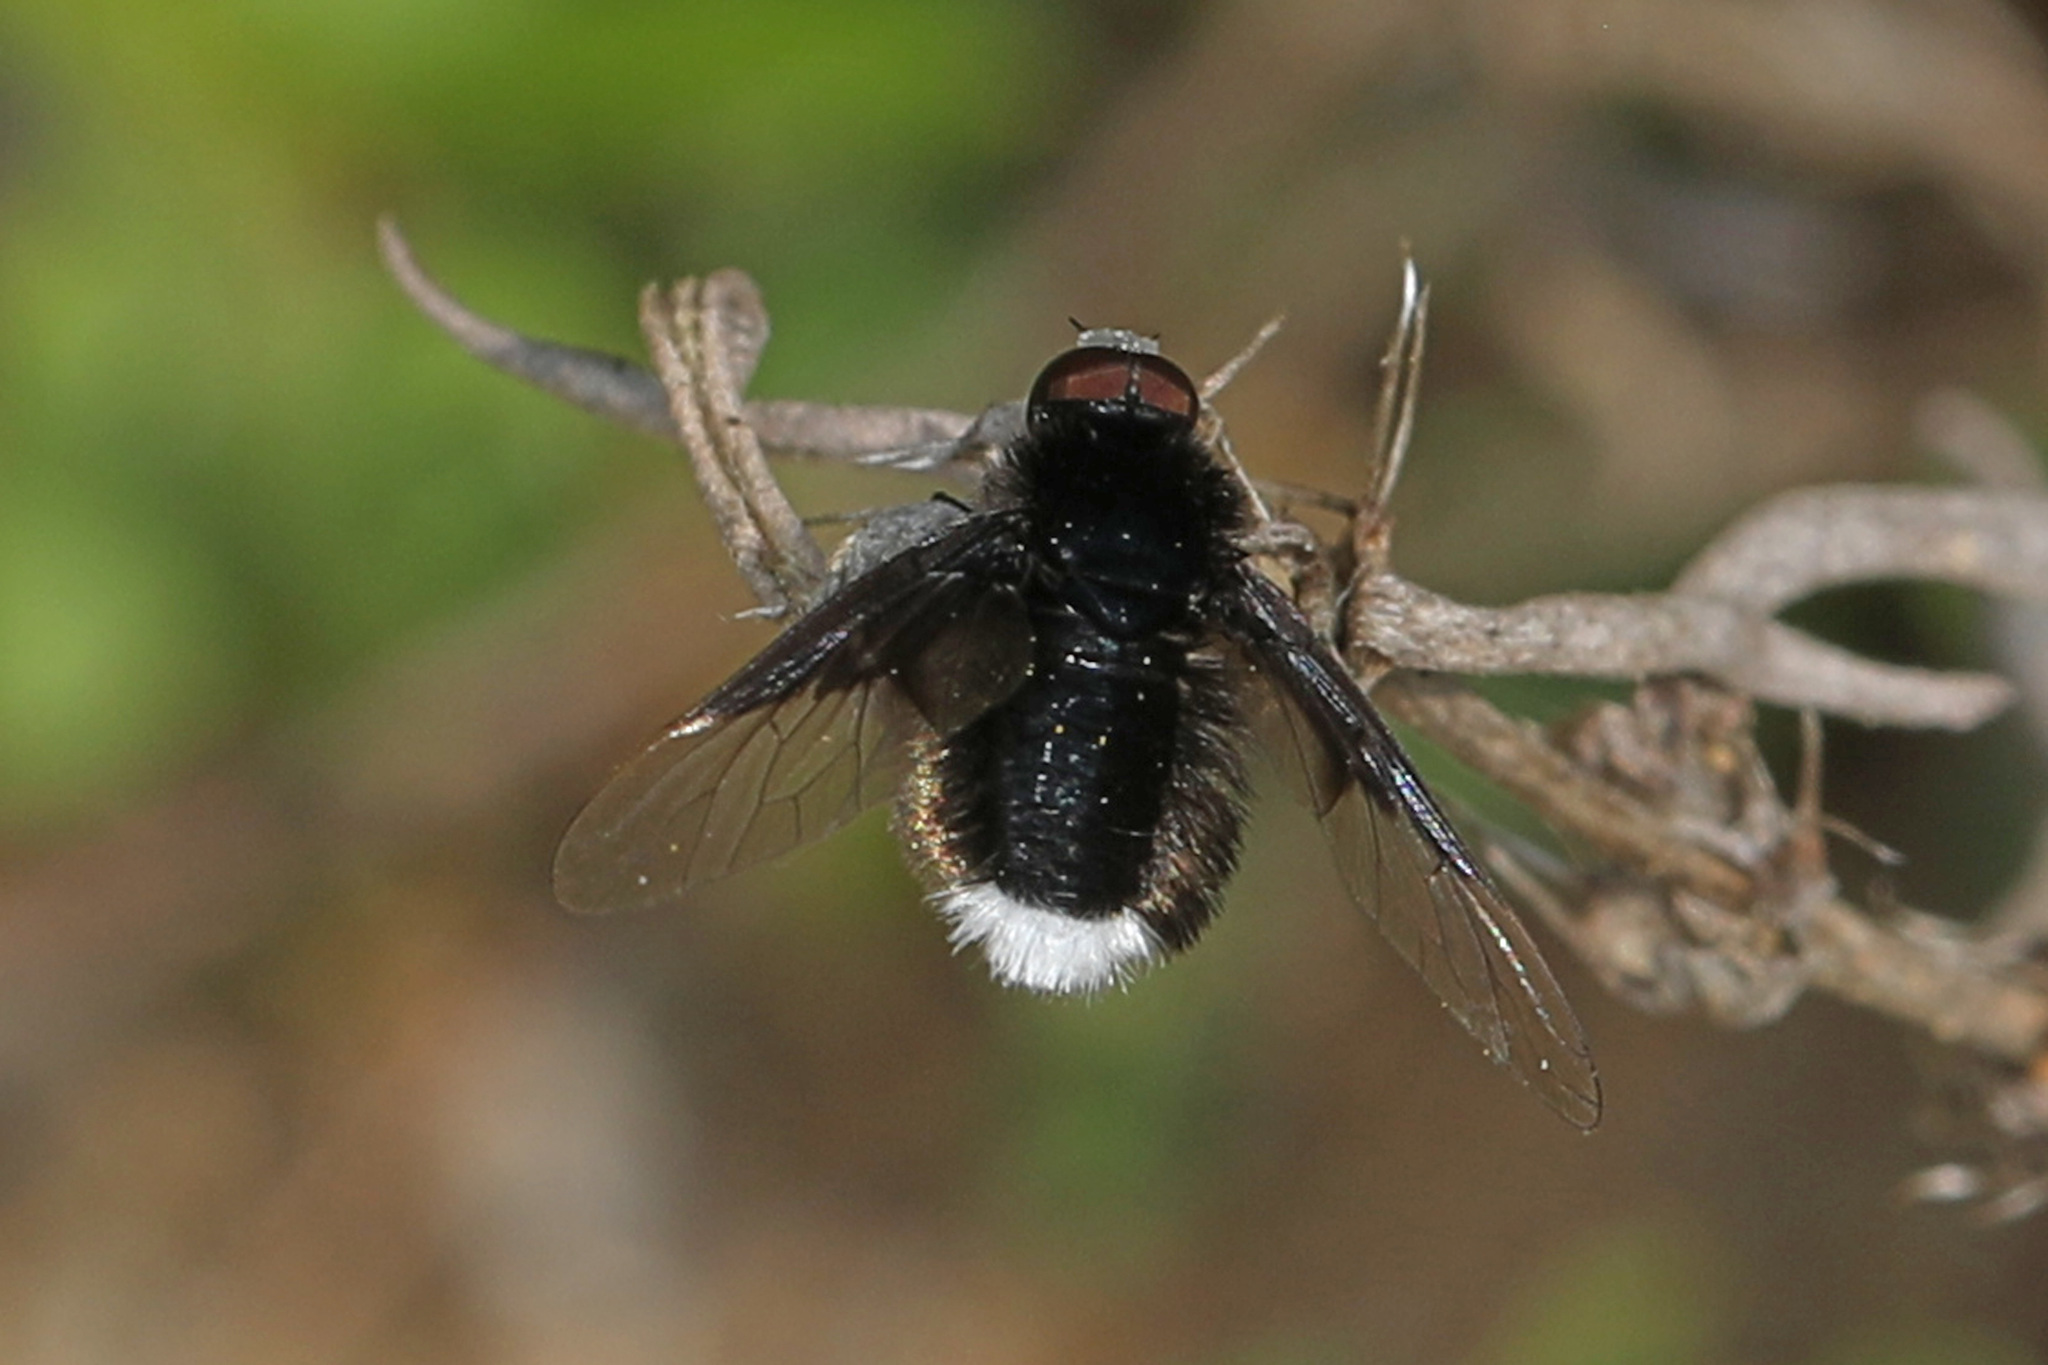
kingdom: Animalia
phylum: Arthropoda
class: Insecta
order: Diptera
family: Bombyliidae
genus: Ogcodocera
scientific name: Ogcodocera leucoprocta
